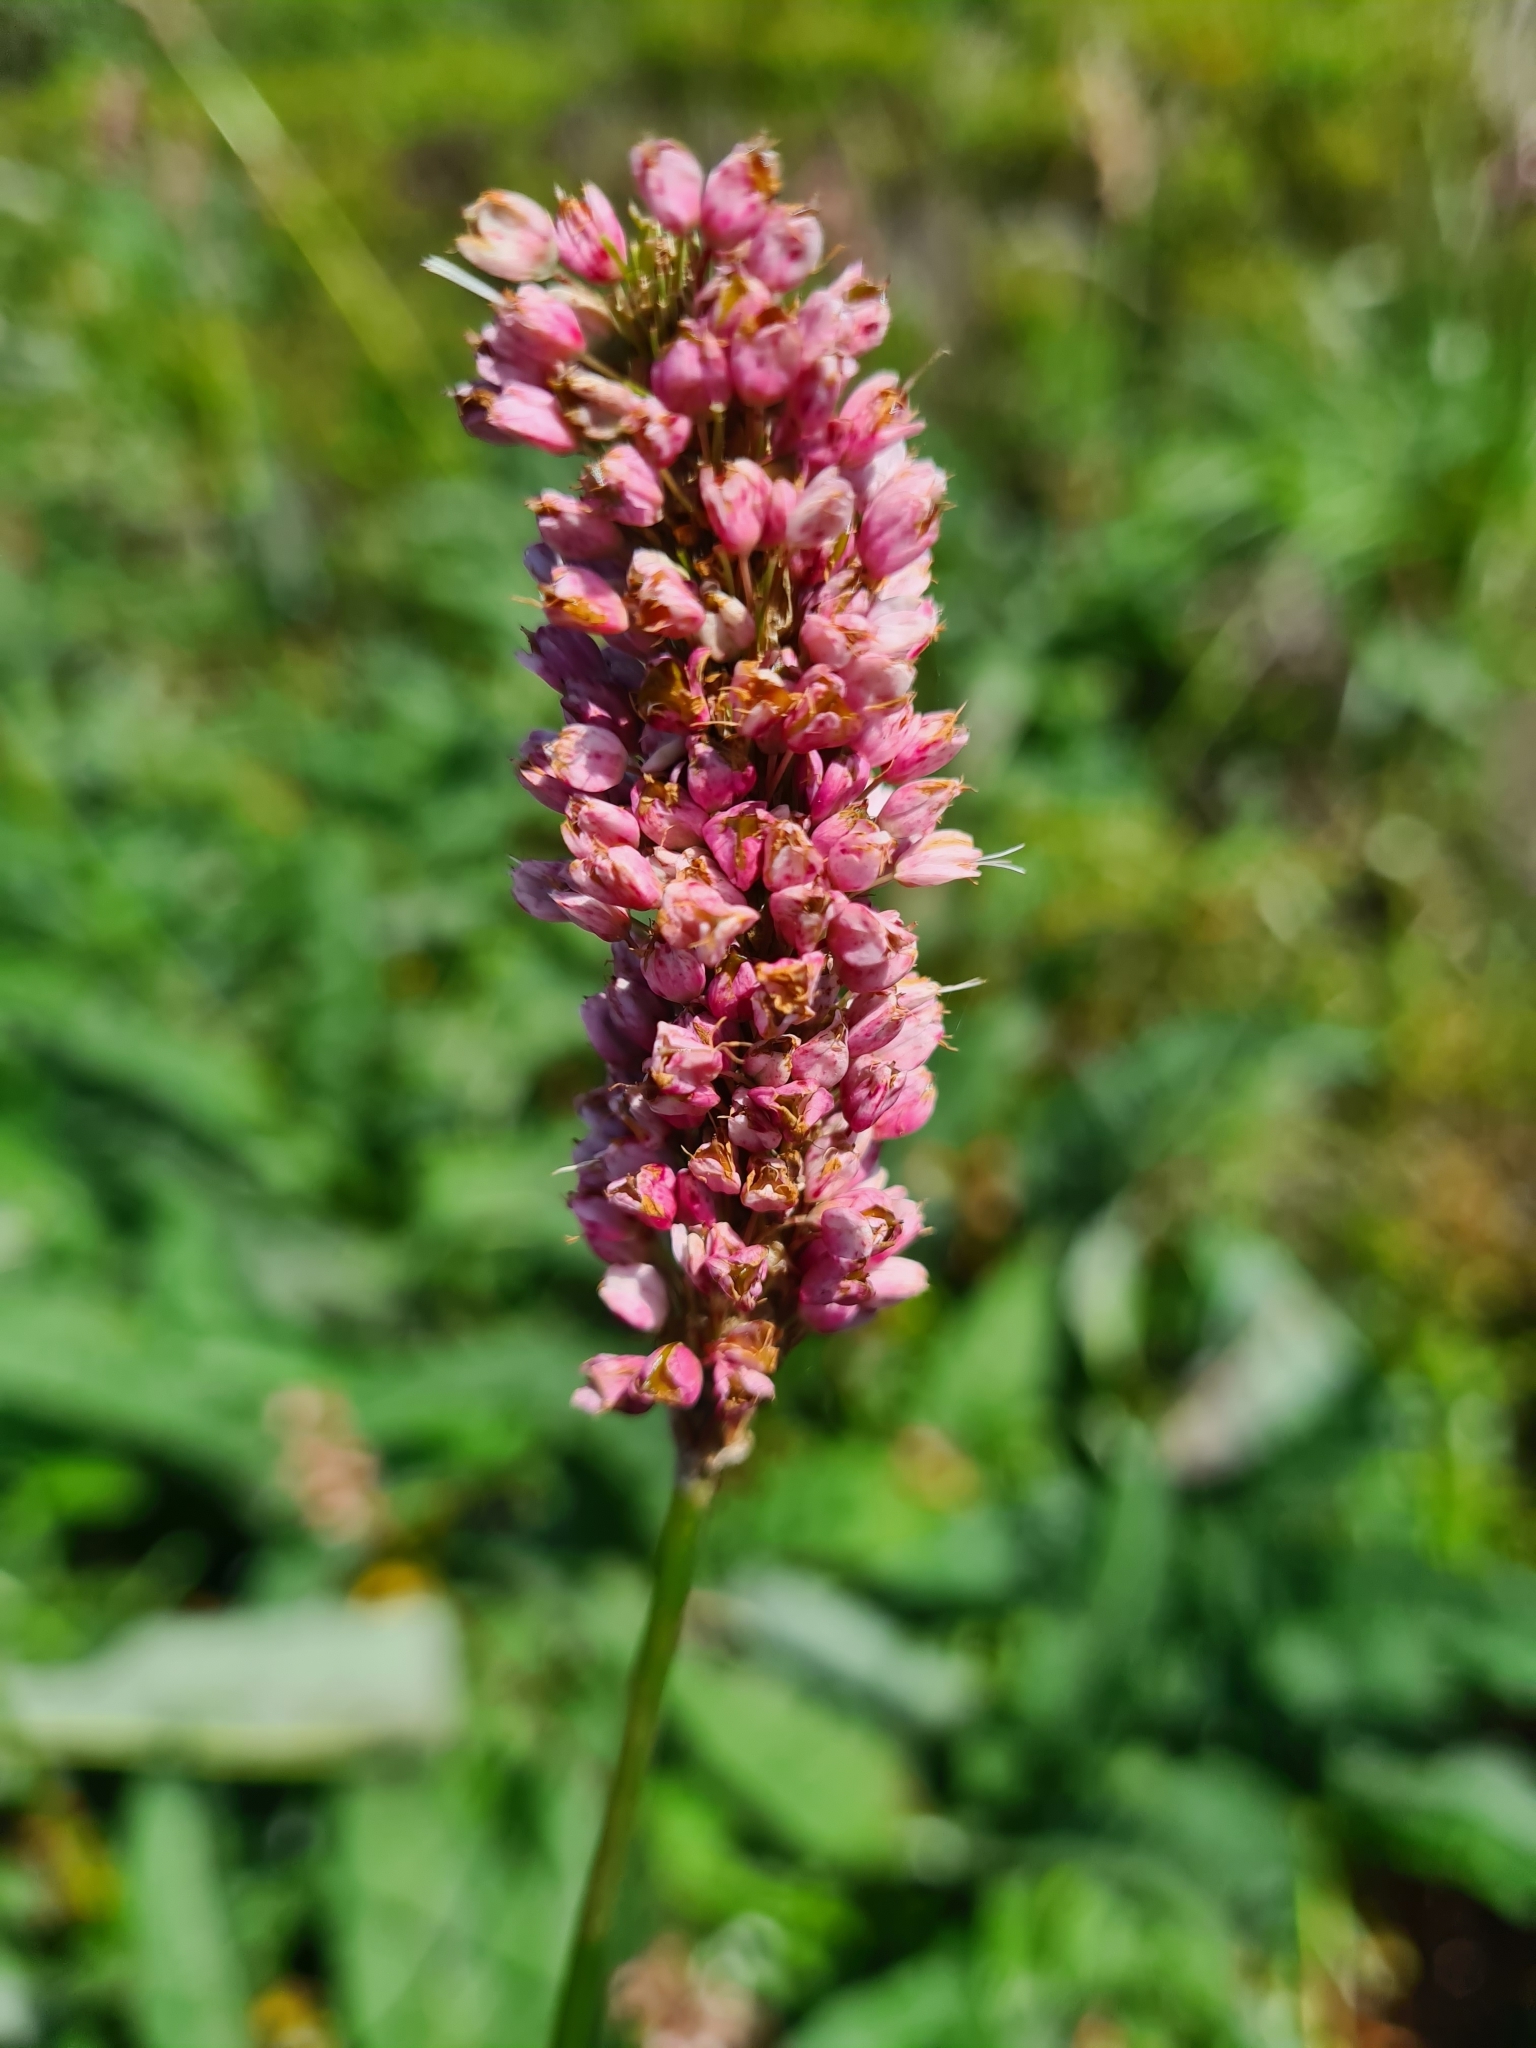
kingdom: Plantae
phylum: Tracheophyta
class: Magnoliopsida
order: Caryophyllales
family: Polygonaceae
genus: Bistorta
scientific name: Bistorta officinalis
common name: Common bistort
